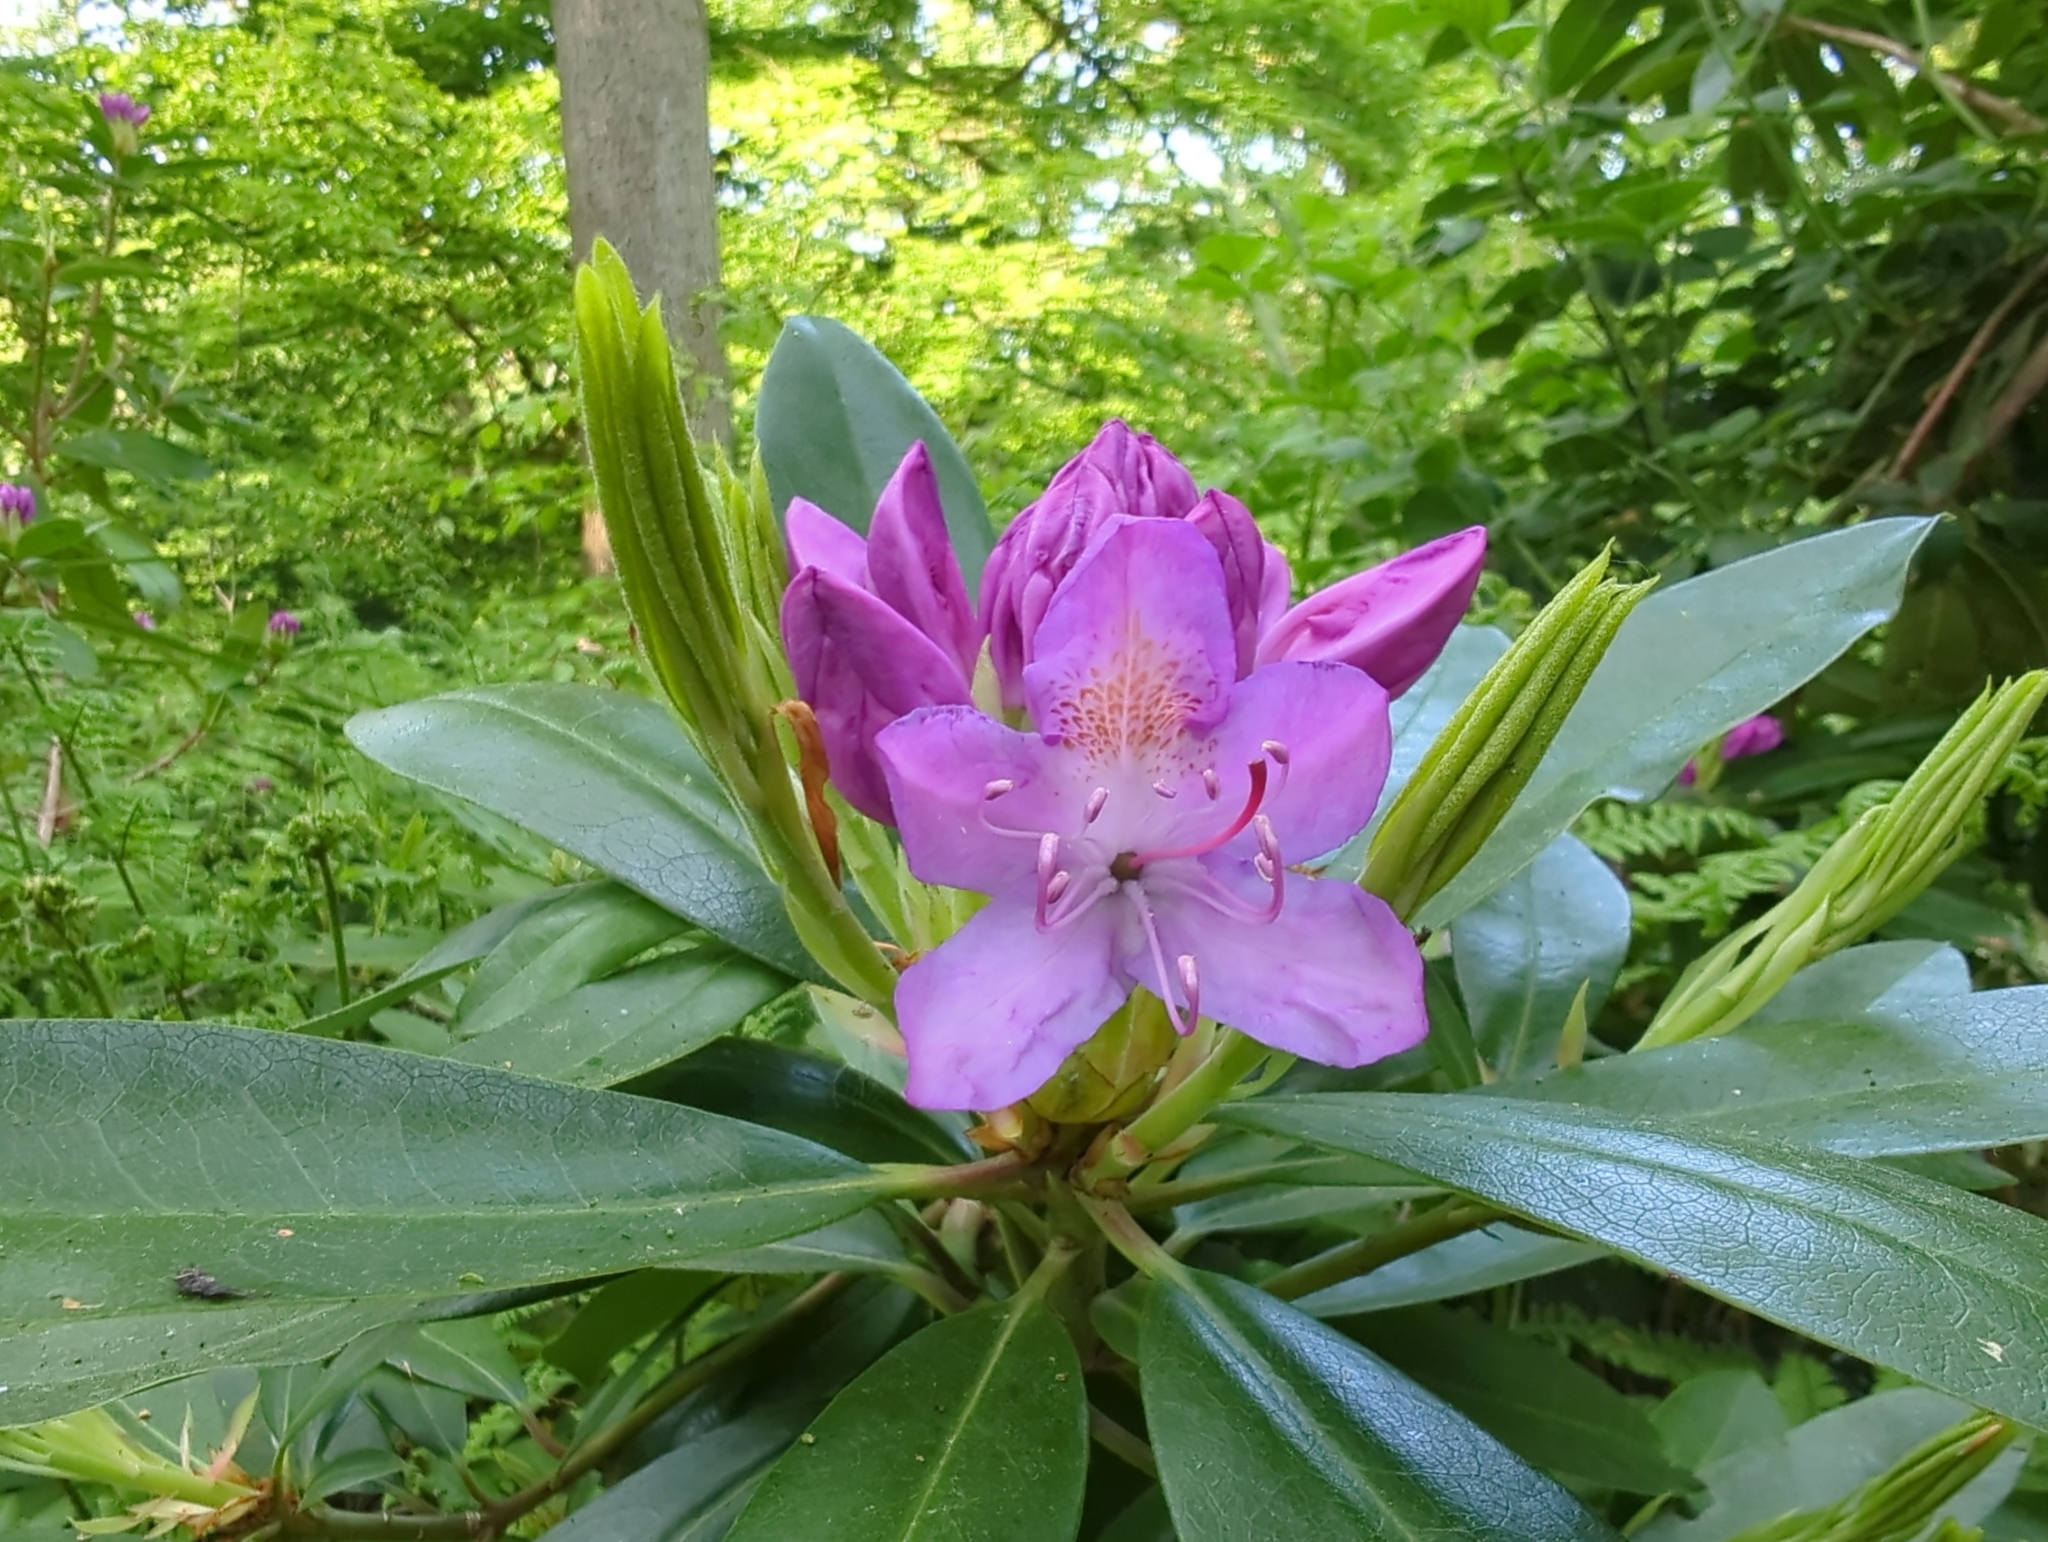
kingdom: Plantae
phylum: Tracheophyta
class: Magnoliopsida
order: Ericales
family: Ericaceae
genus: Rhododendron
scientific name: Rhododendron ponticum
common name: Rhododendron
